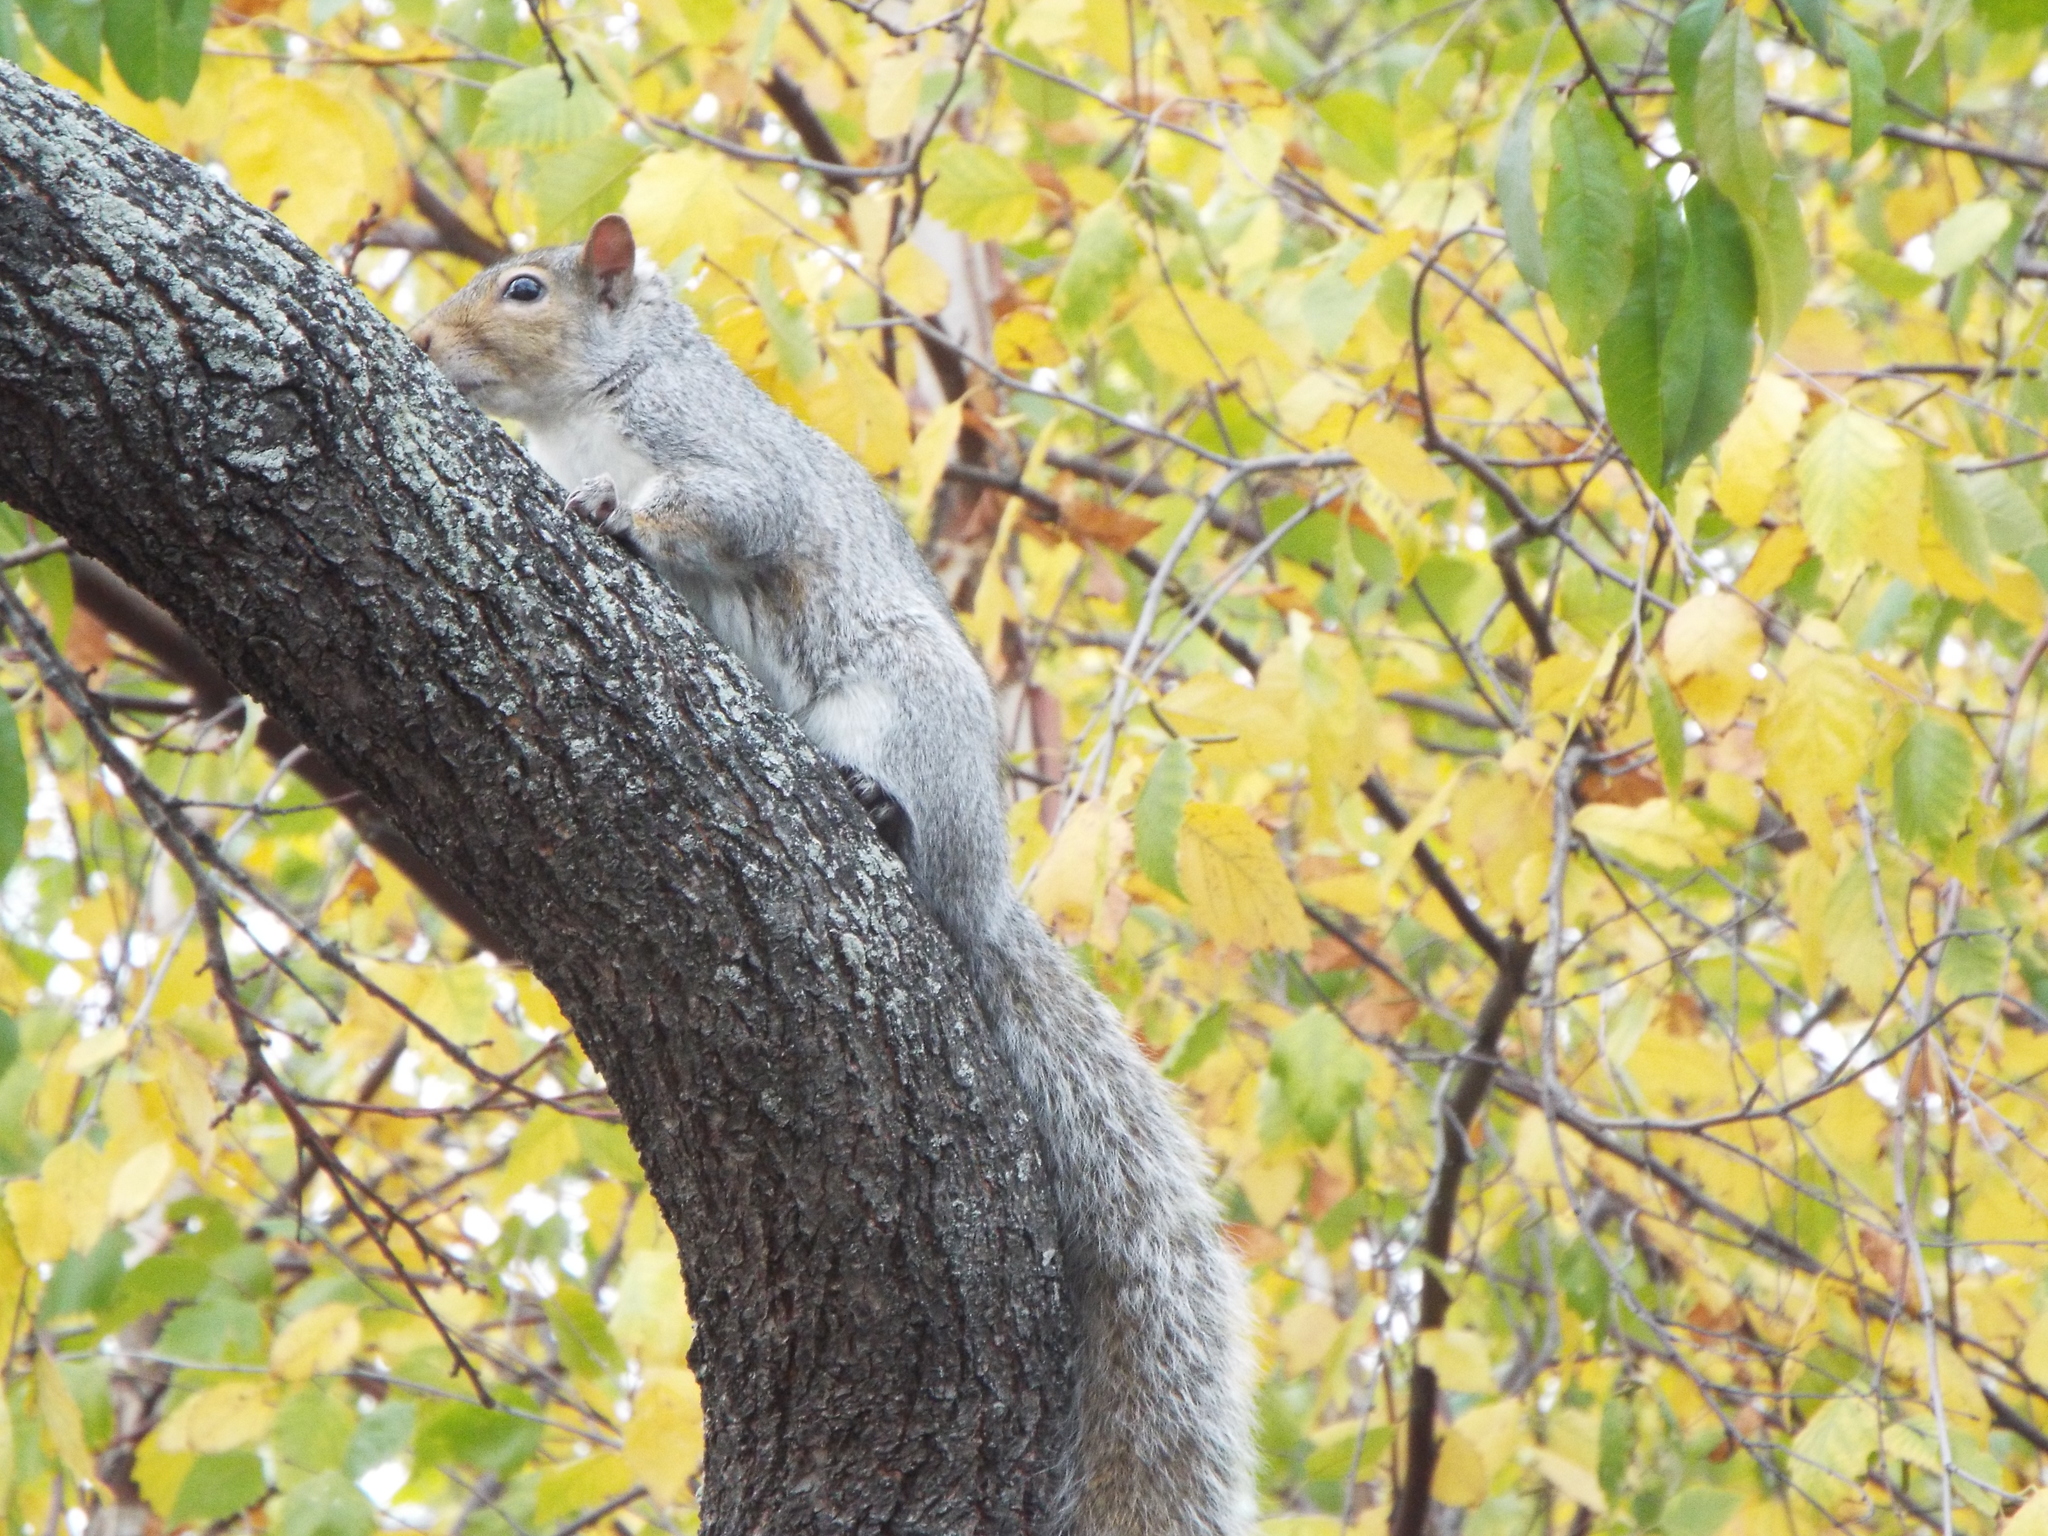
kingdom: Animalia
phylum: Chordata
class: Mammalia
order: Rodentia
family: Sciuridae
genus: Sciurus
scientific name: Sciurus carolinensis
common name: Eastern gray squirrel
